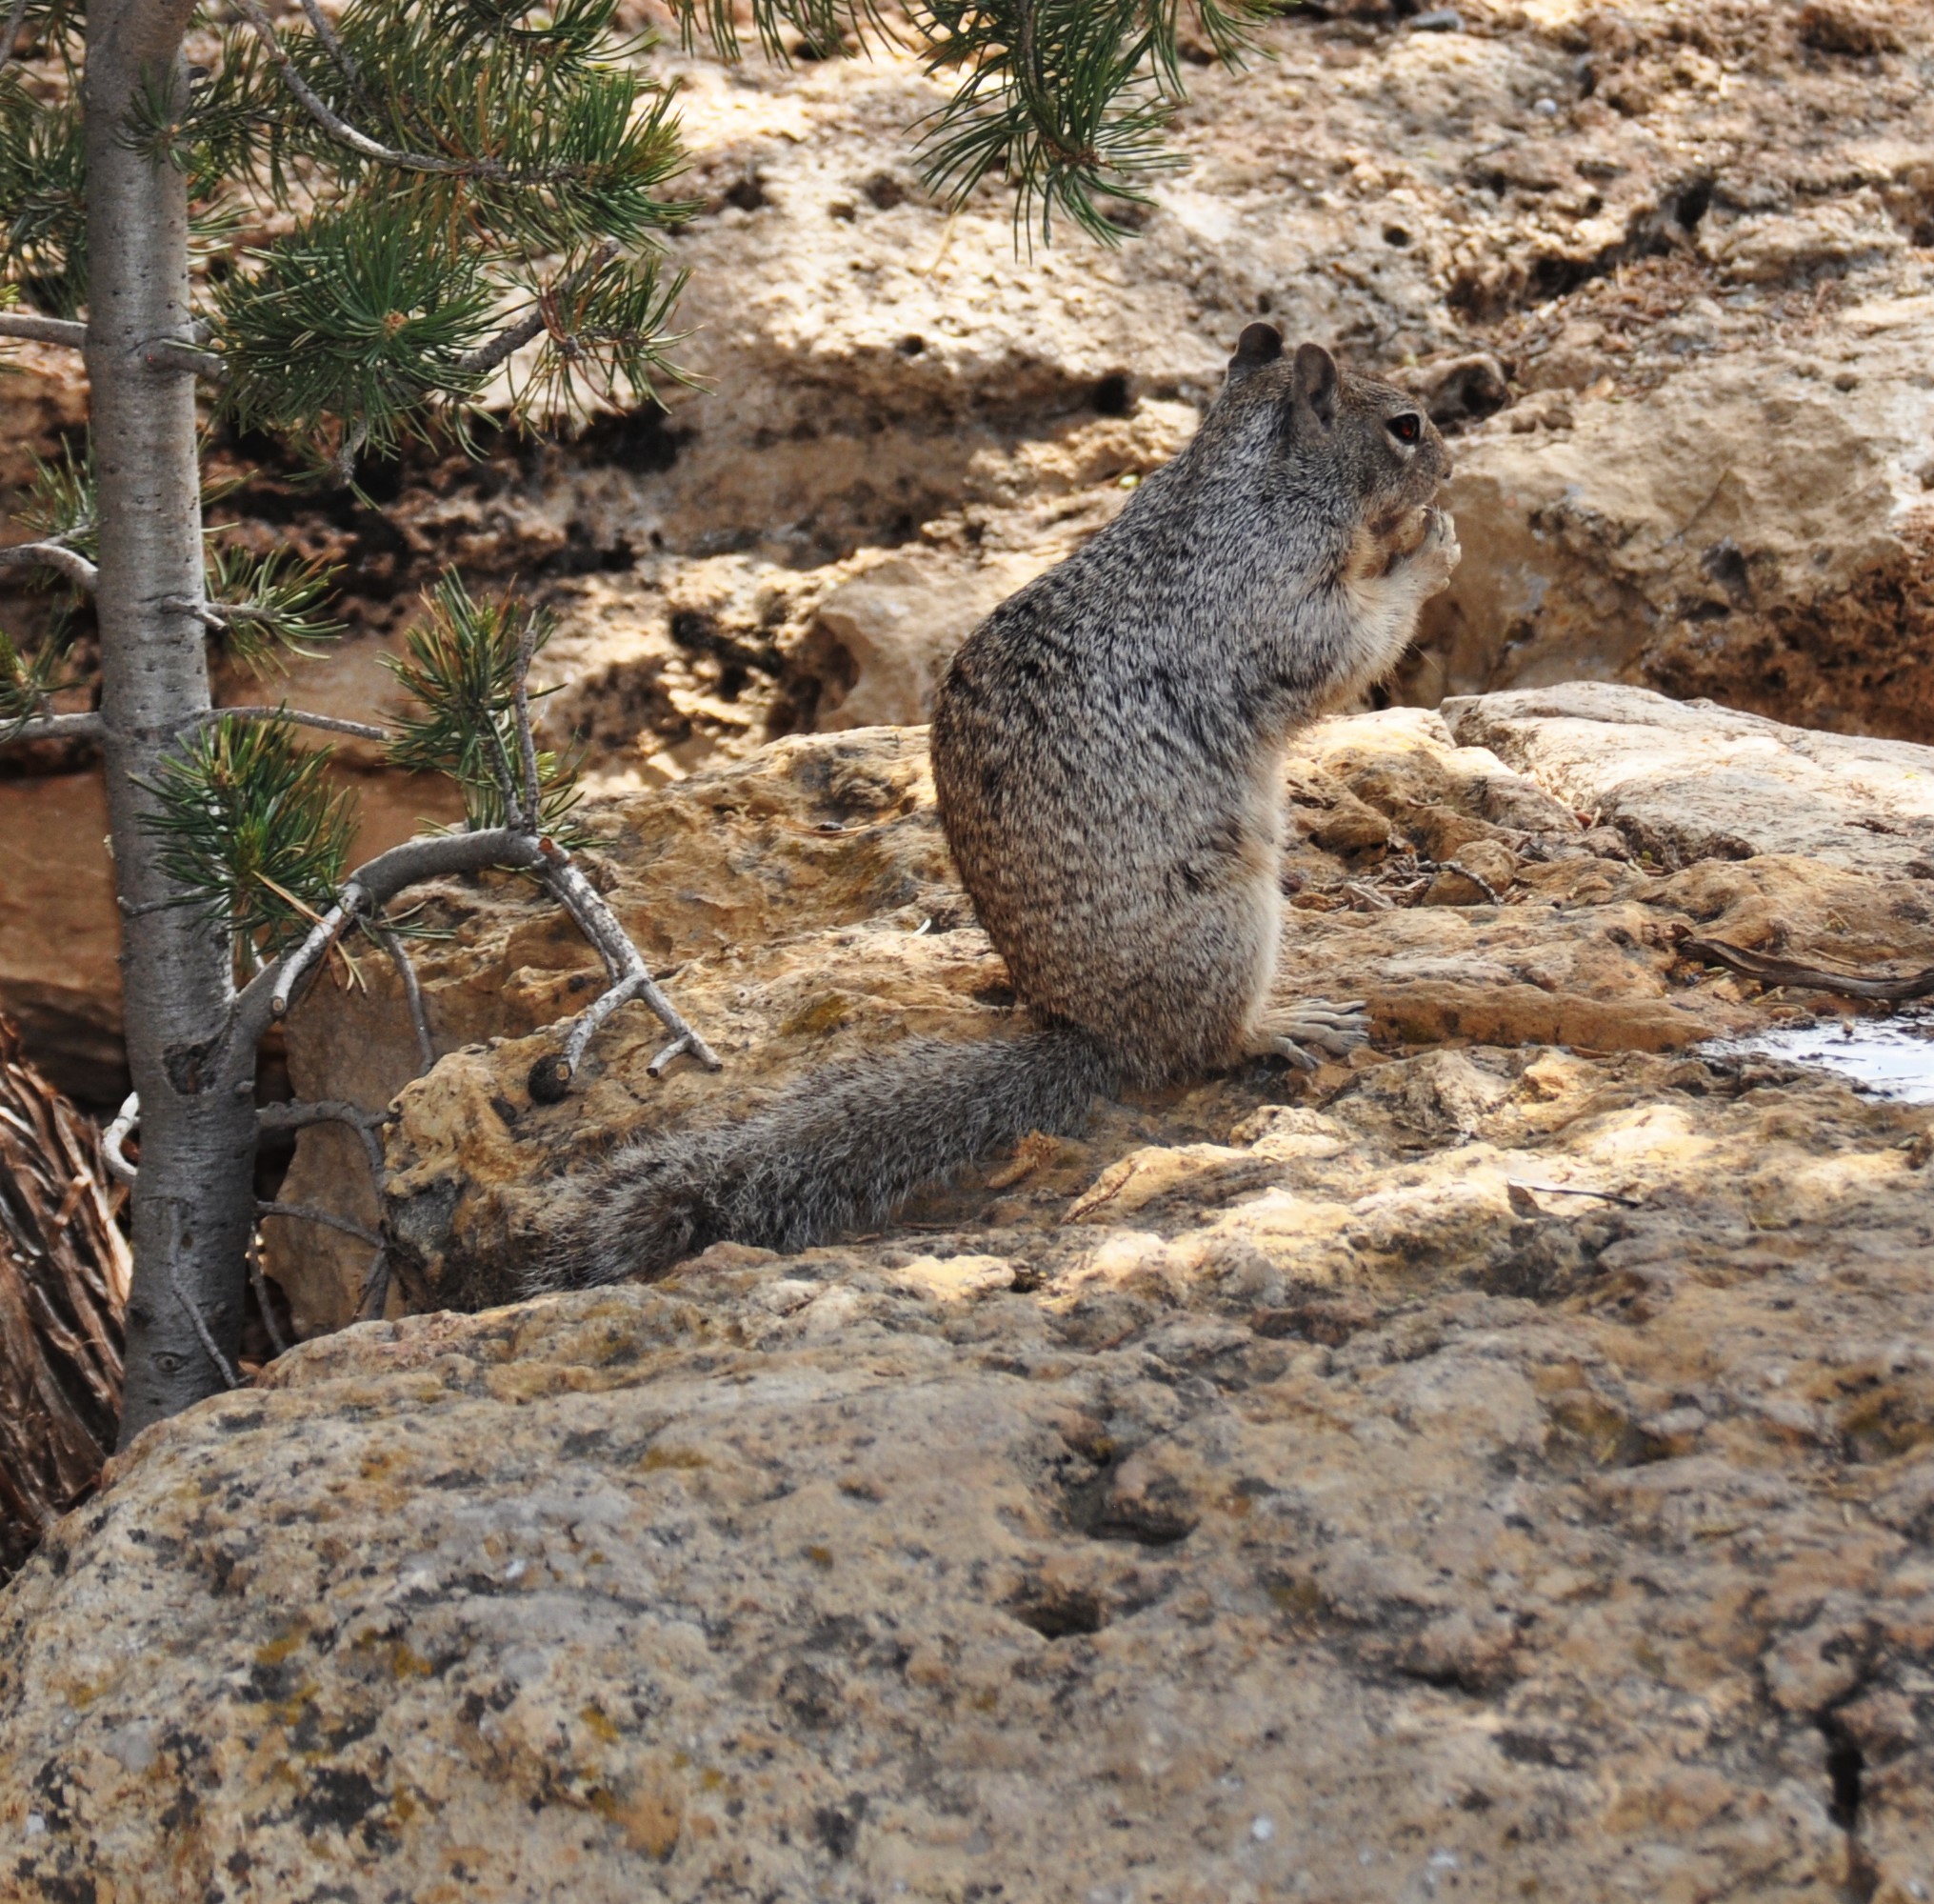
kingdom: Animalia
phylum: Chordata
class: Mammalia
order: Rodentia
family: Sciuridae
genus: Otospermophilus
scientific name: Otospermophilus variegatus
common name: Rock squirrel
